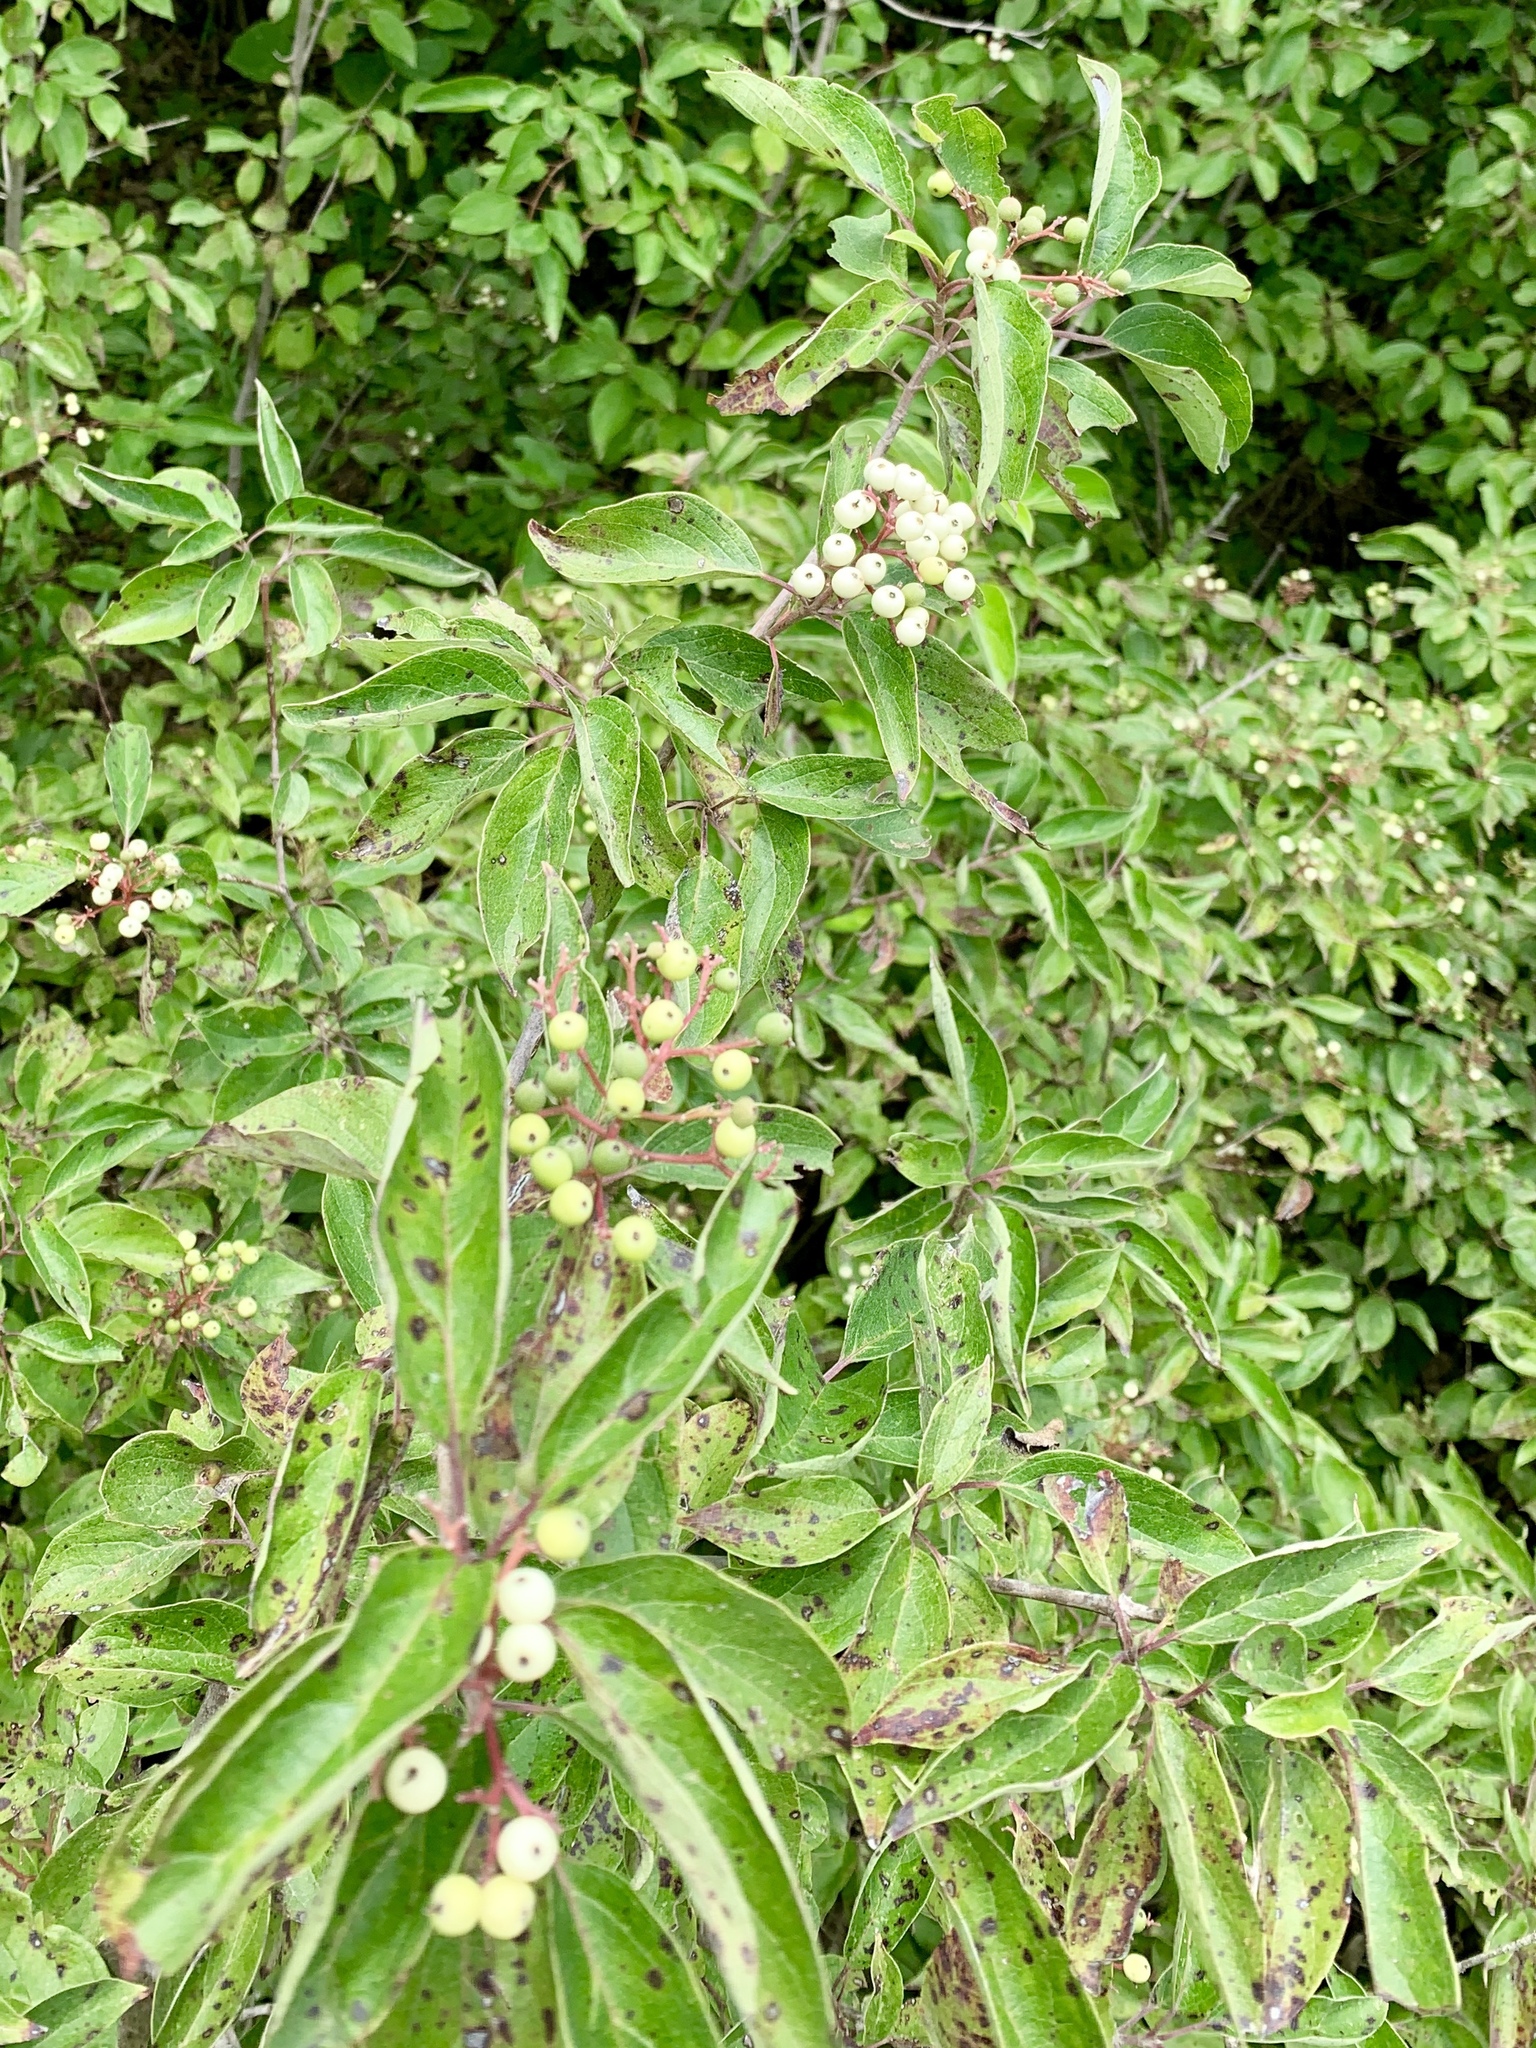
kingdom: Plantae
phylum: Tracheophyta
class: Magnoliopsida
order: Cornales
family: Cornaceae
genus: Cornus
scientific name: Cornus drummondii
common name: Rough-leaf dogwood
